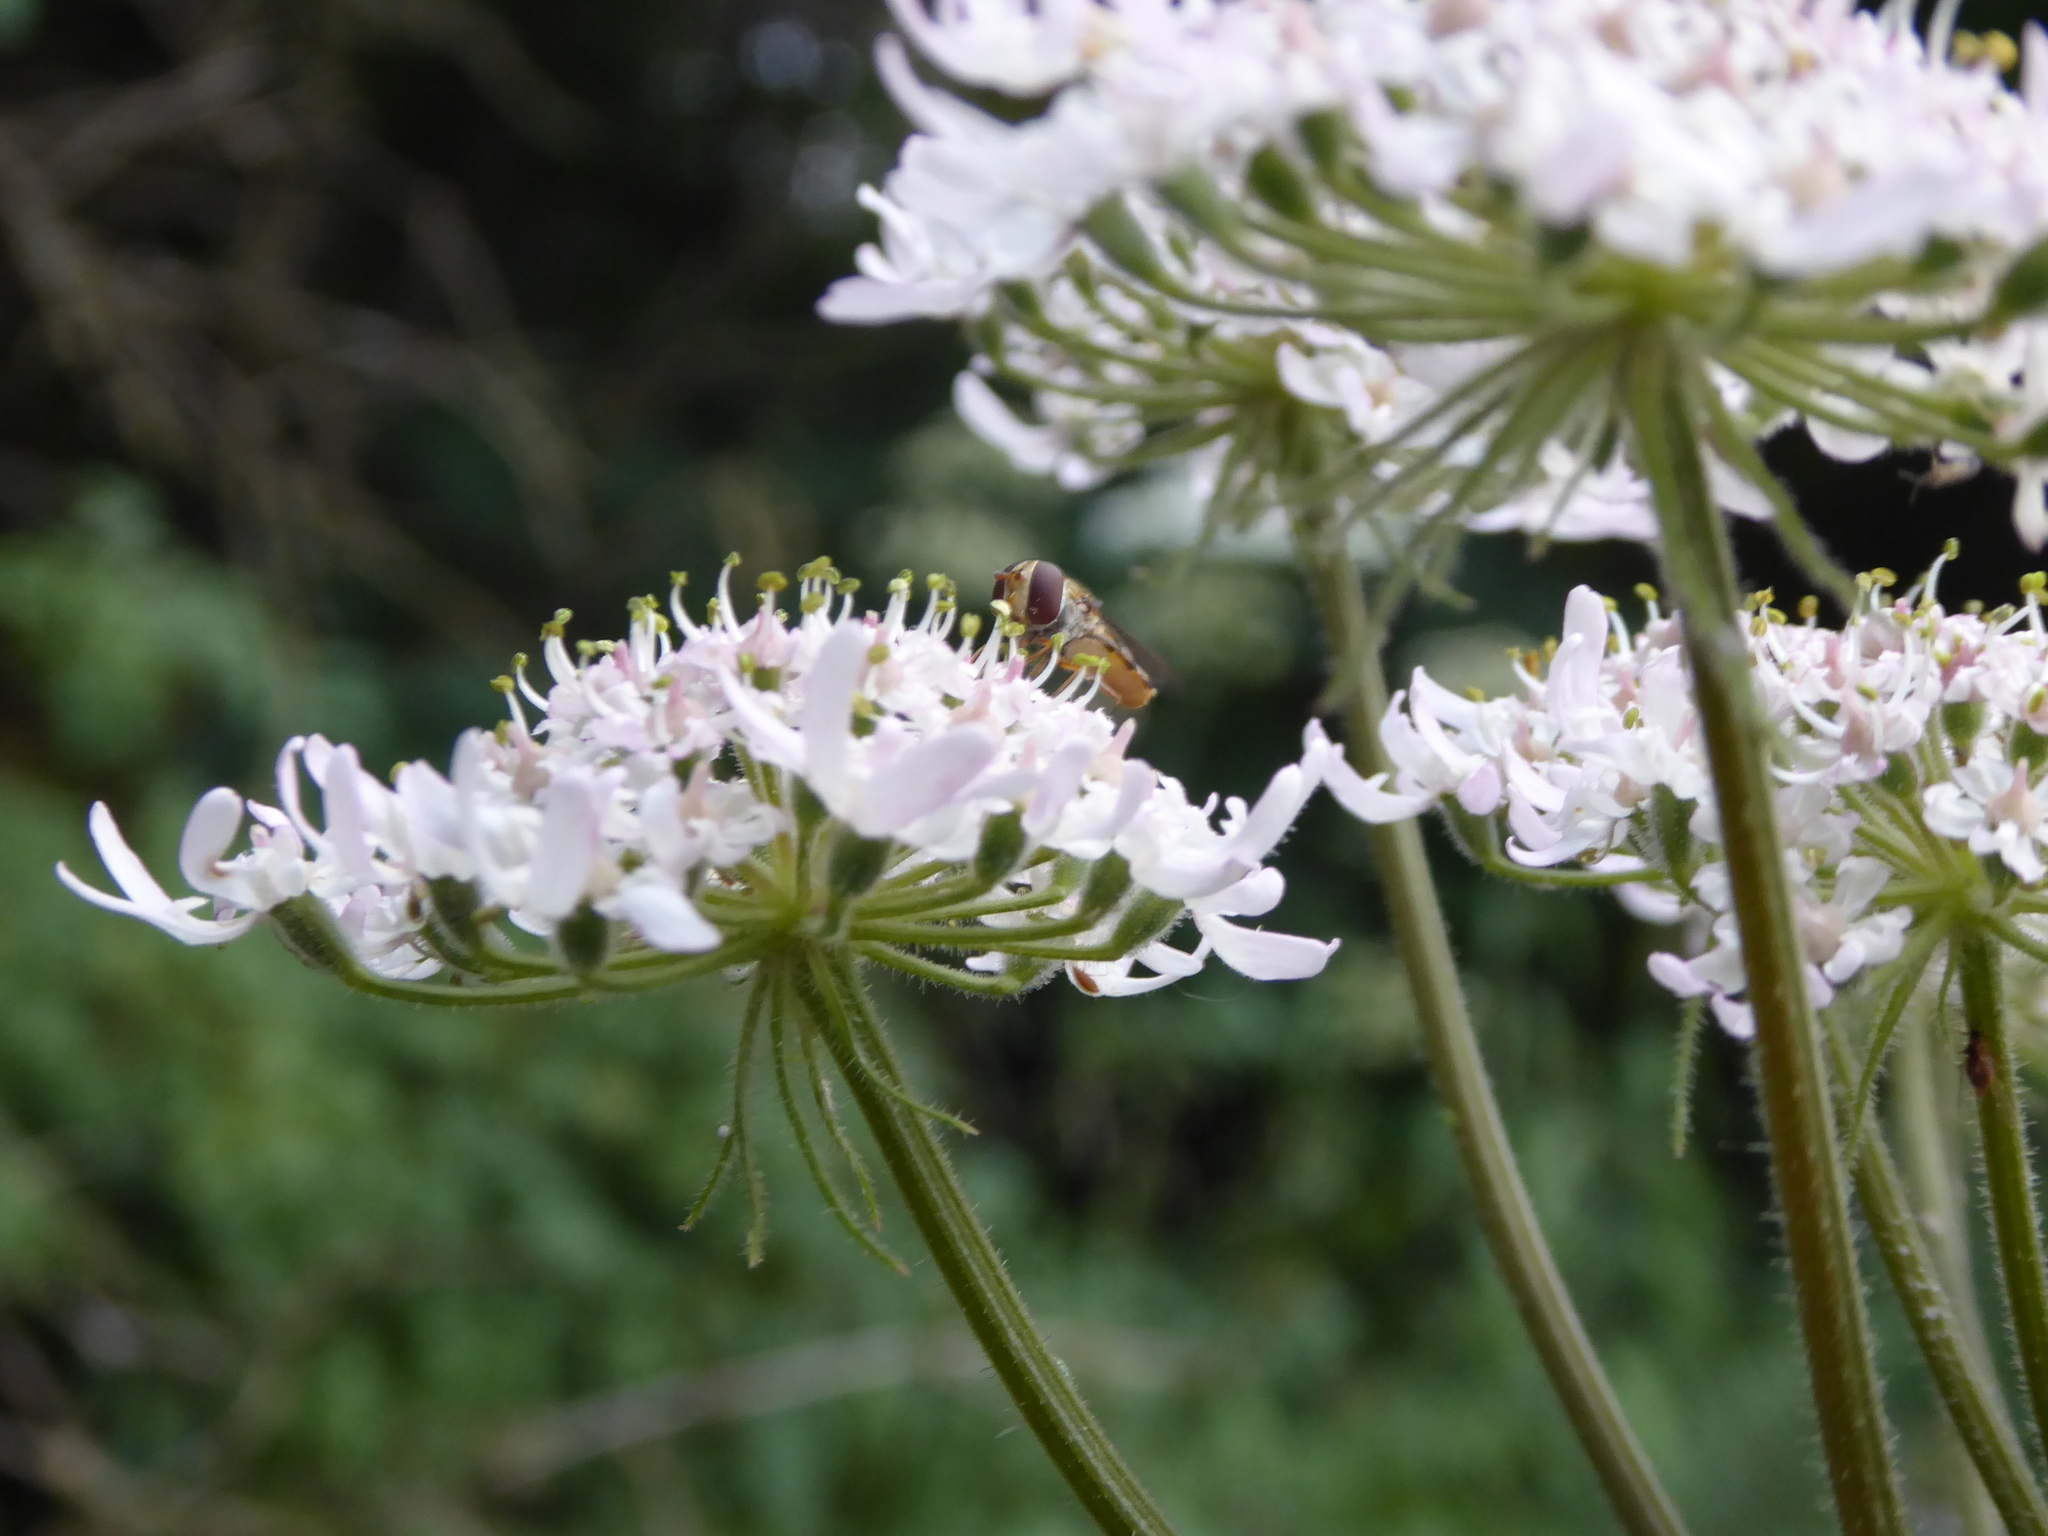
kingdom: Animalia
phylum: Arthropoda
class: Insecta
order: Diptera
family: Syrphidae
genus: Episyrphus
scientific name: Episyrphus balteatus
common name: Marmalade hoverfly
